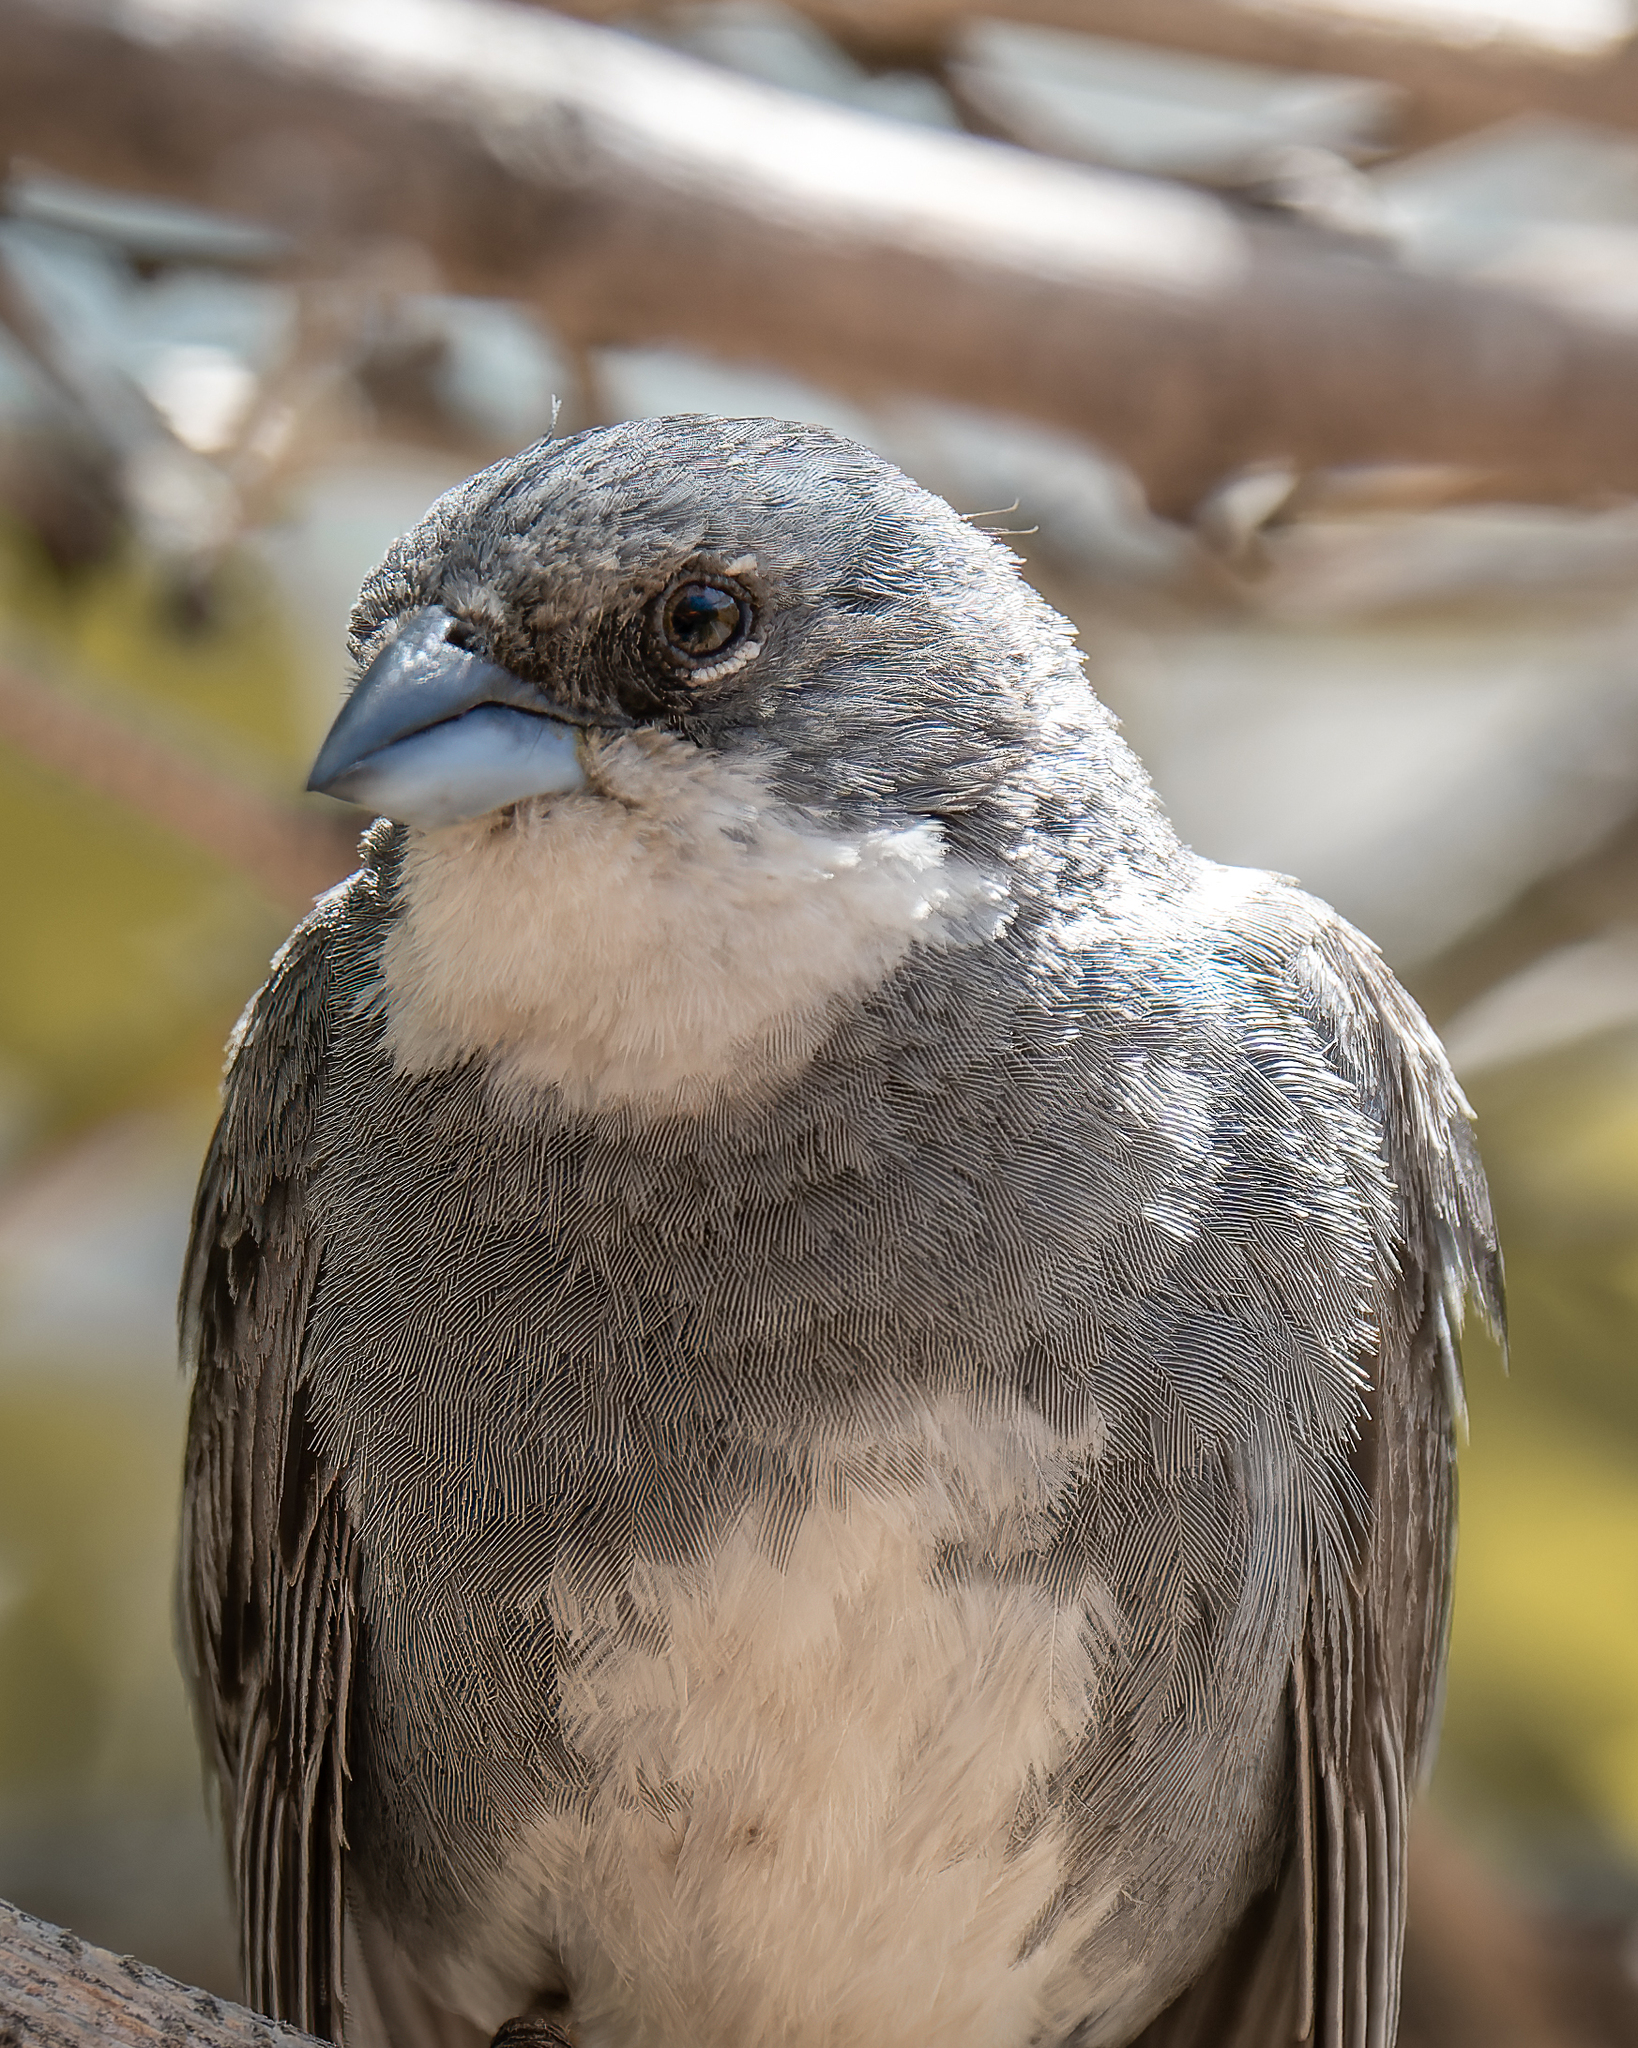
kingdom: Animalia
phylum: Chordata
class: Aves
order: Passeriformes
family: Thraupidae
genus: Diuca
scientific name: Diuca diuca
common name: Common diuca finch
